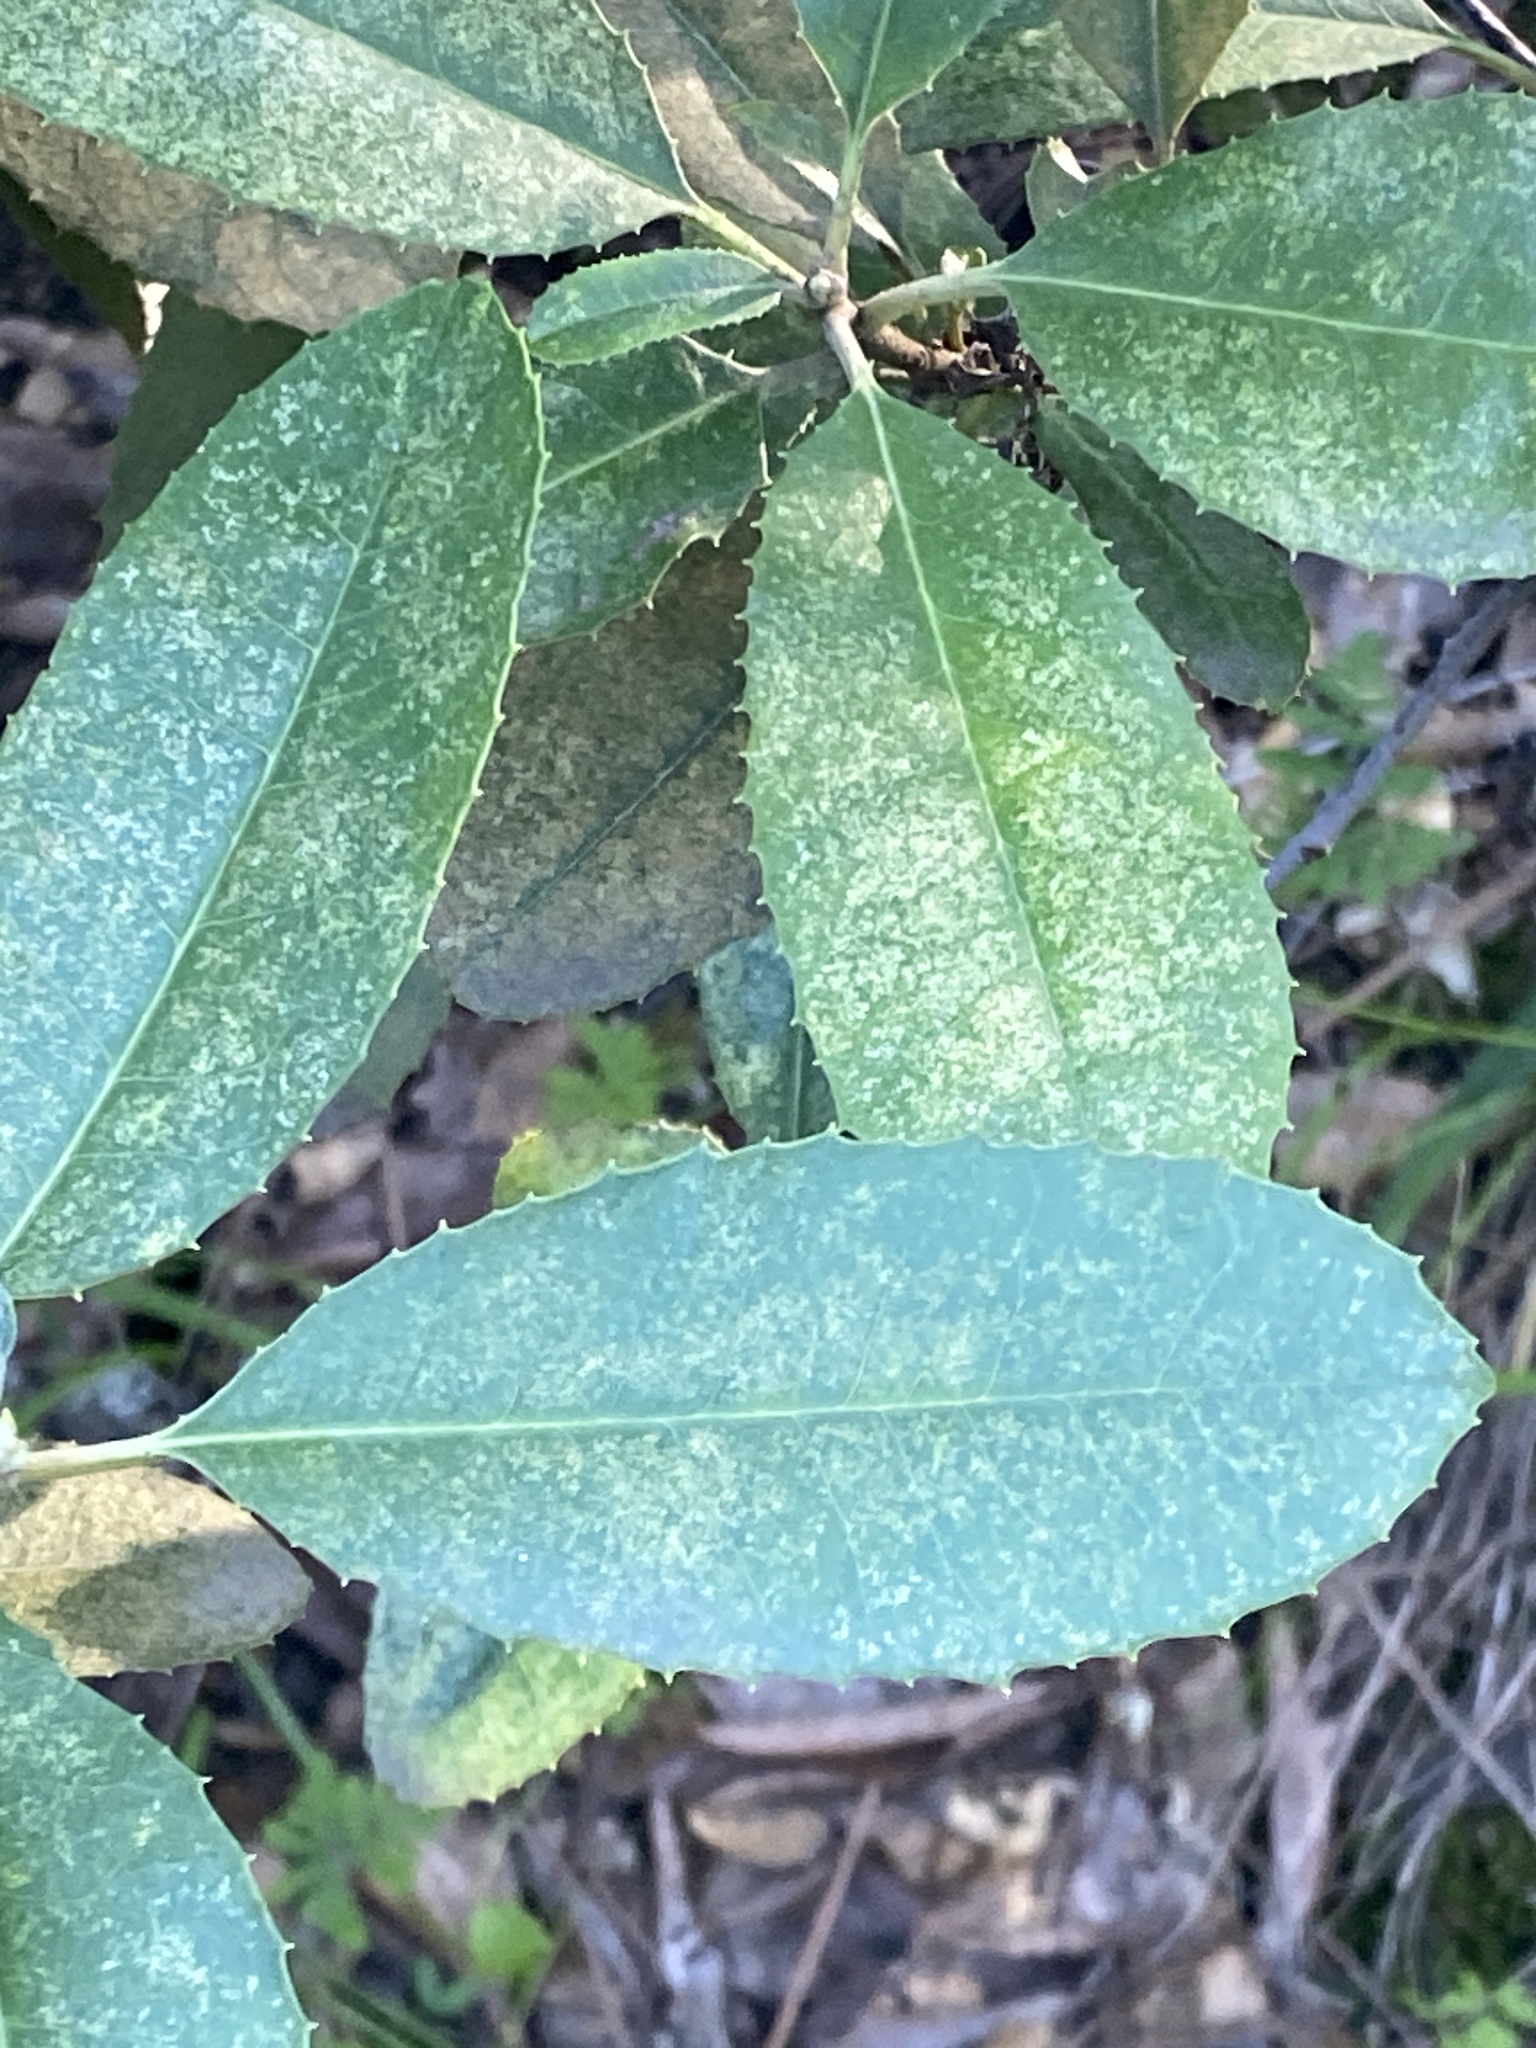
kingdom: Plantae
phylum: Tracheophyta
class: Magnoliopsida
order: Rosales
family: Rosaceae
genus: Heteromeles
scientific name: Heteromeles arbutifolia
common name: California-holly
